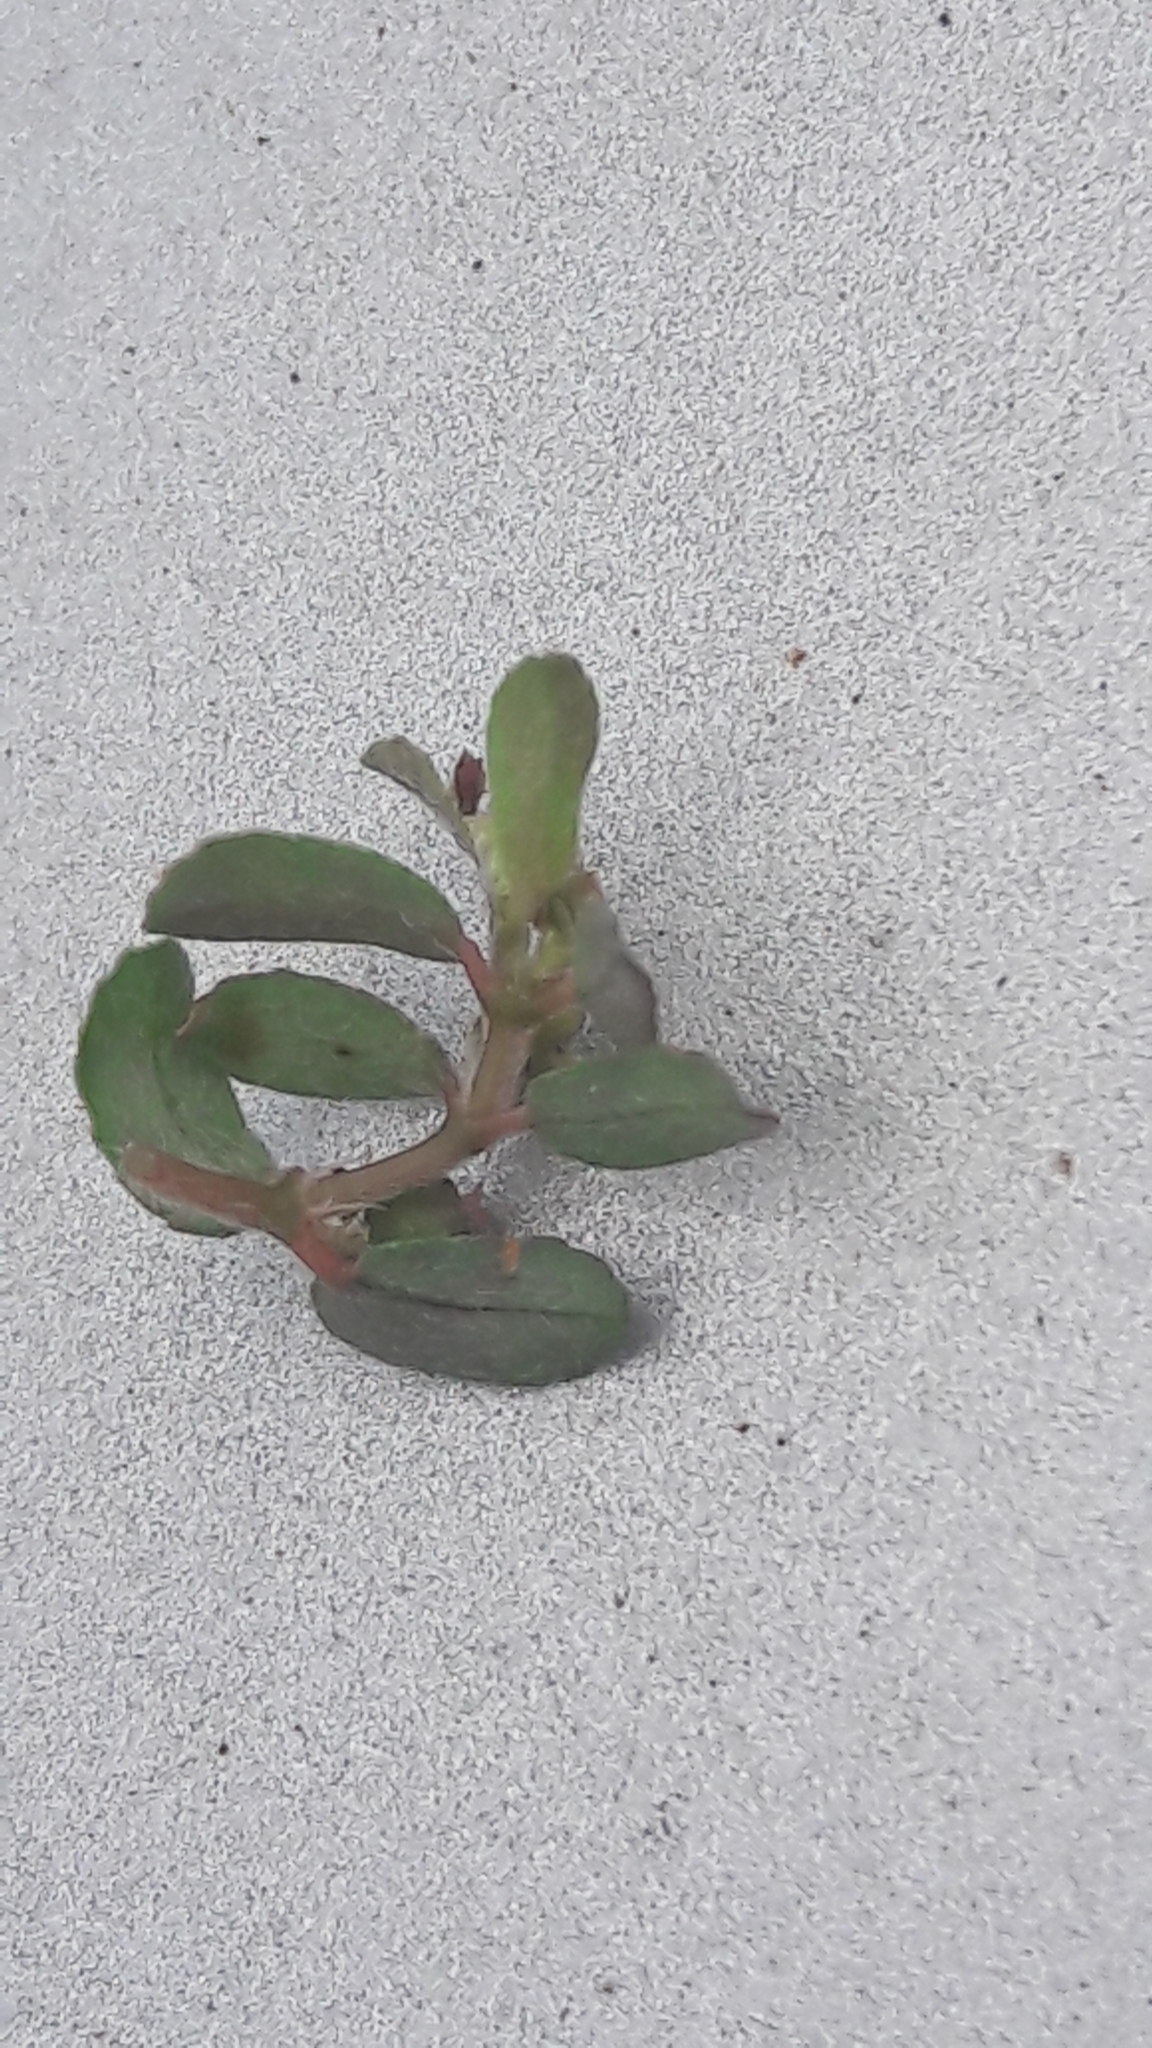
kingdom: Plantae
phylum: Tracheophyta
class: Magnoliopsida
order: Malpighiales
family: Euphorbiaceae
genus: Euphorbia
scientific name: Euphorbia maculata
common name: Spotted spurge
